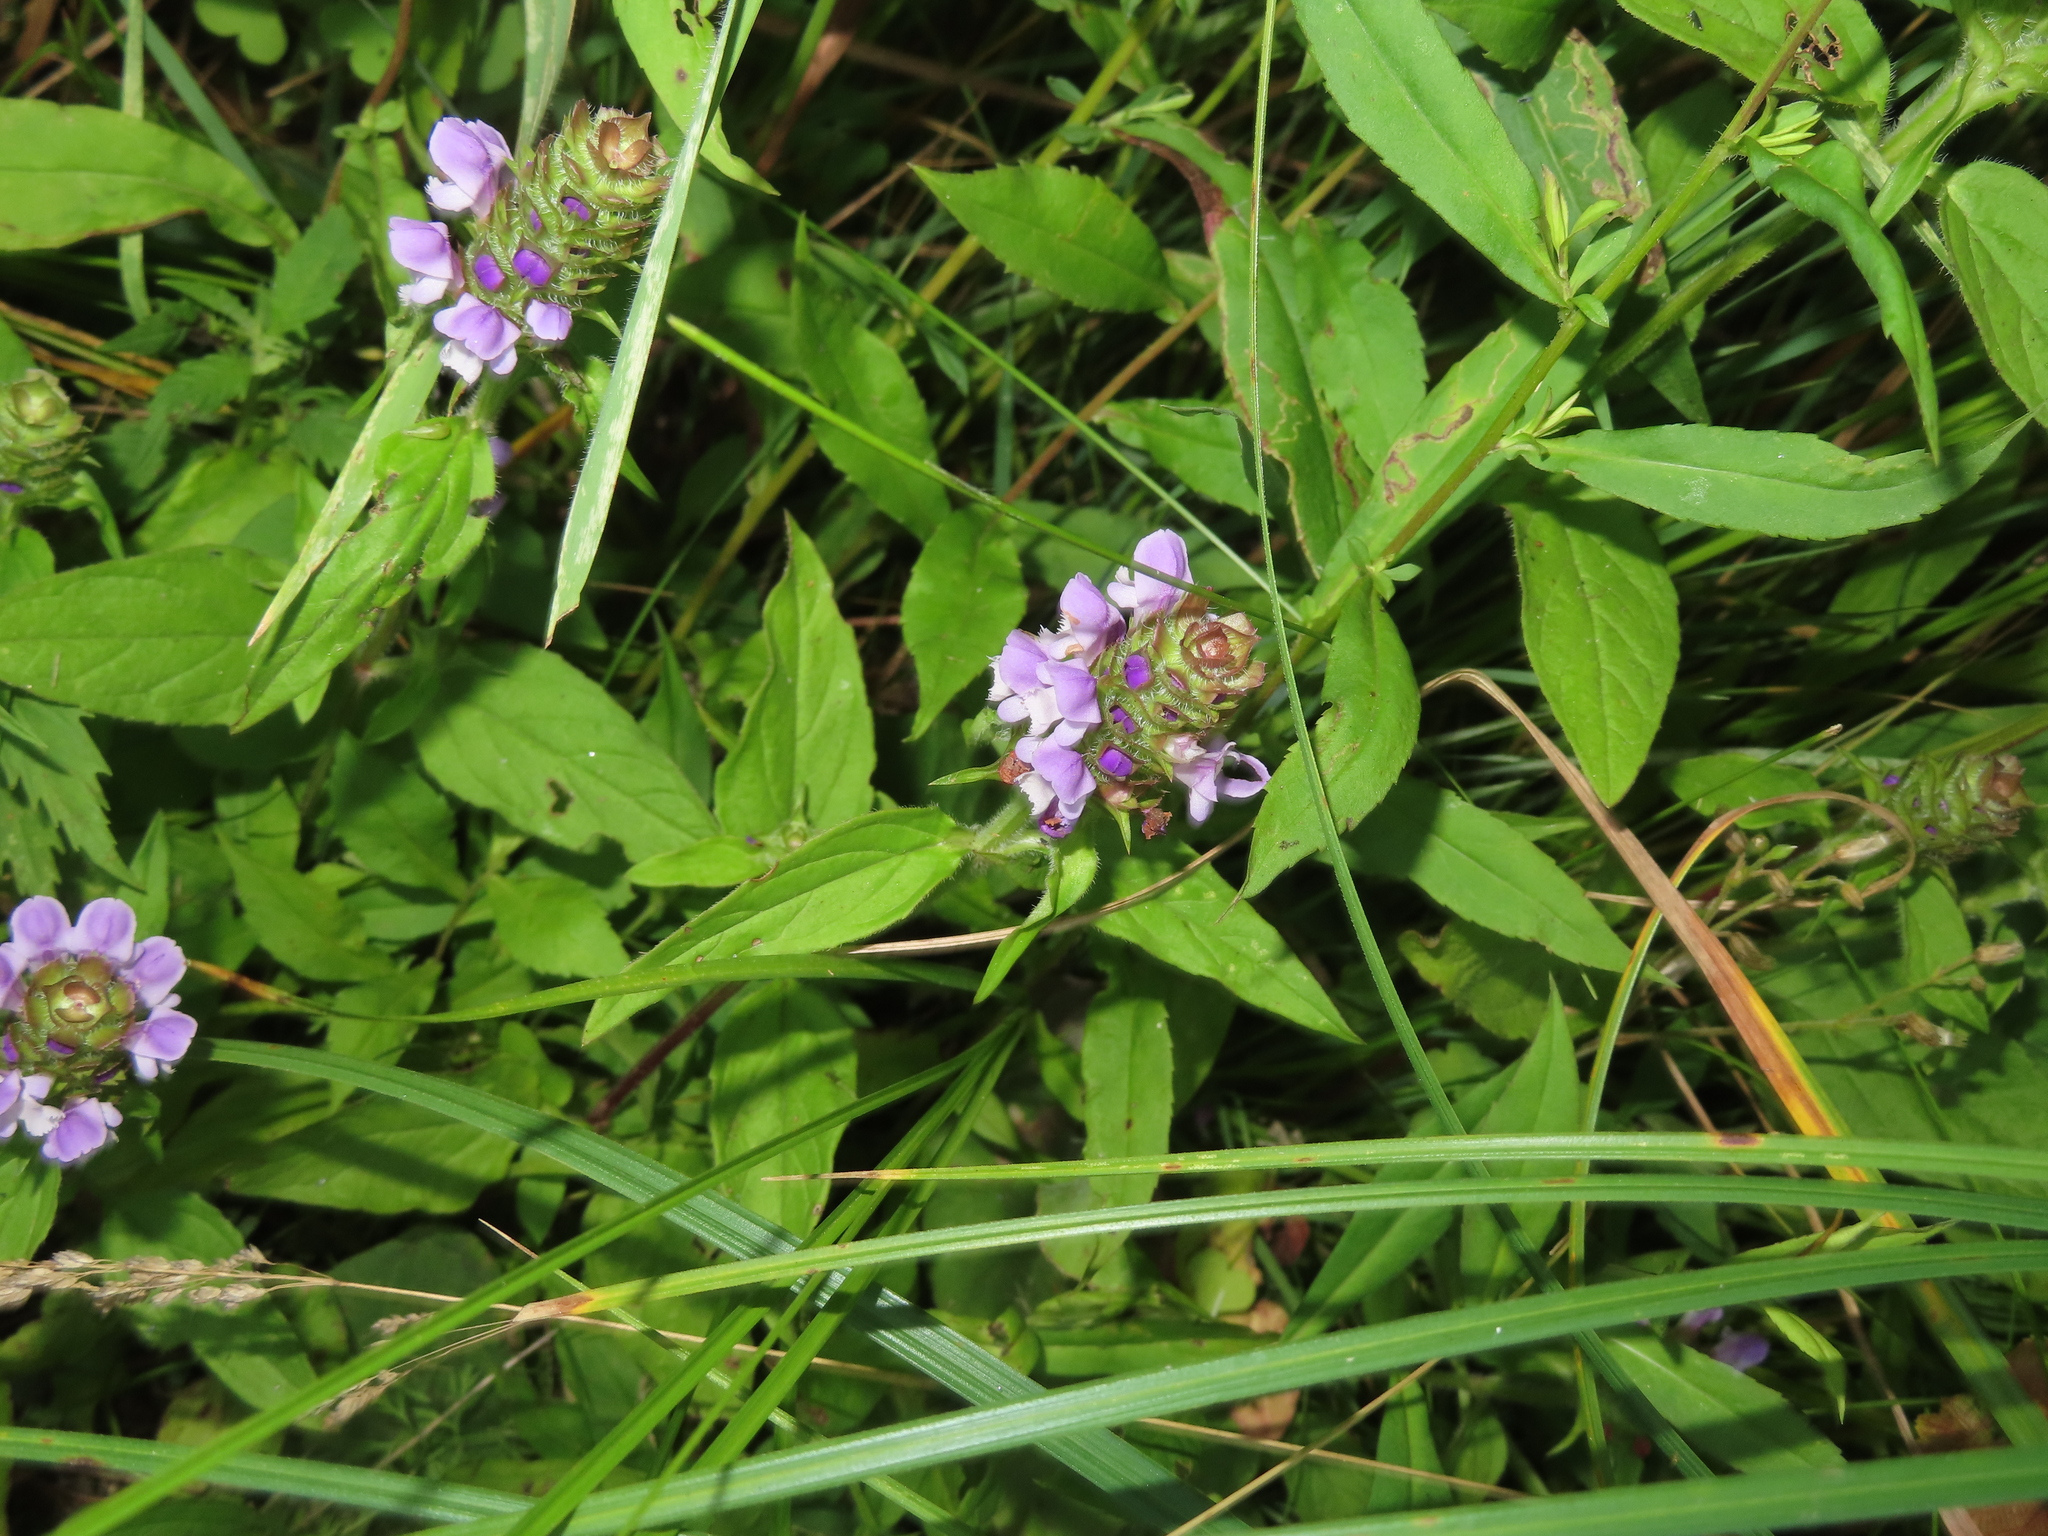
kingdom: Plantae
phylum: Tracheophyta
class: Magnoliopsida
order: Lamiales
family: Lamiaceae
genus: Prunella
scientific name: Prunella vulgaris
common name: Heal-all
